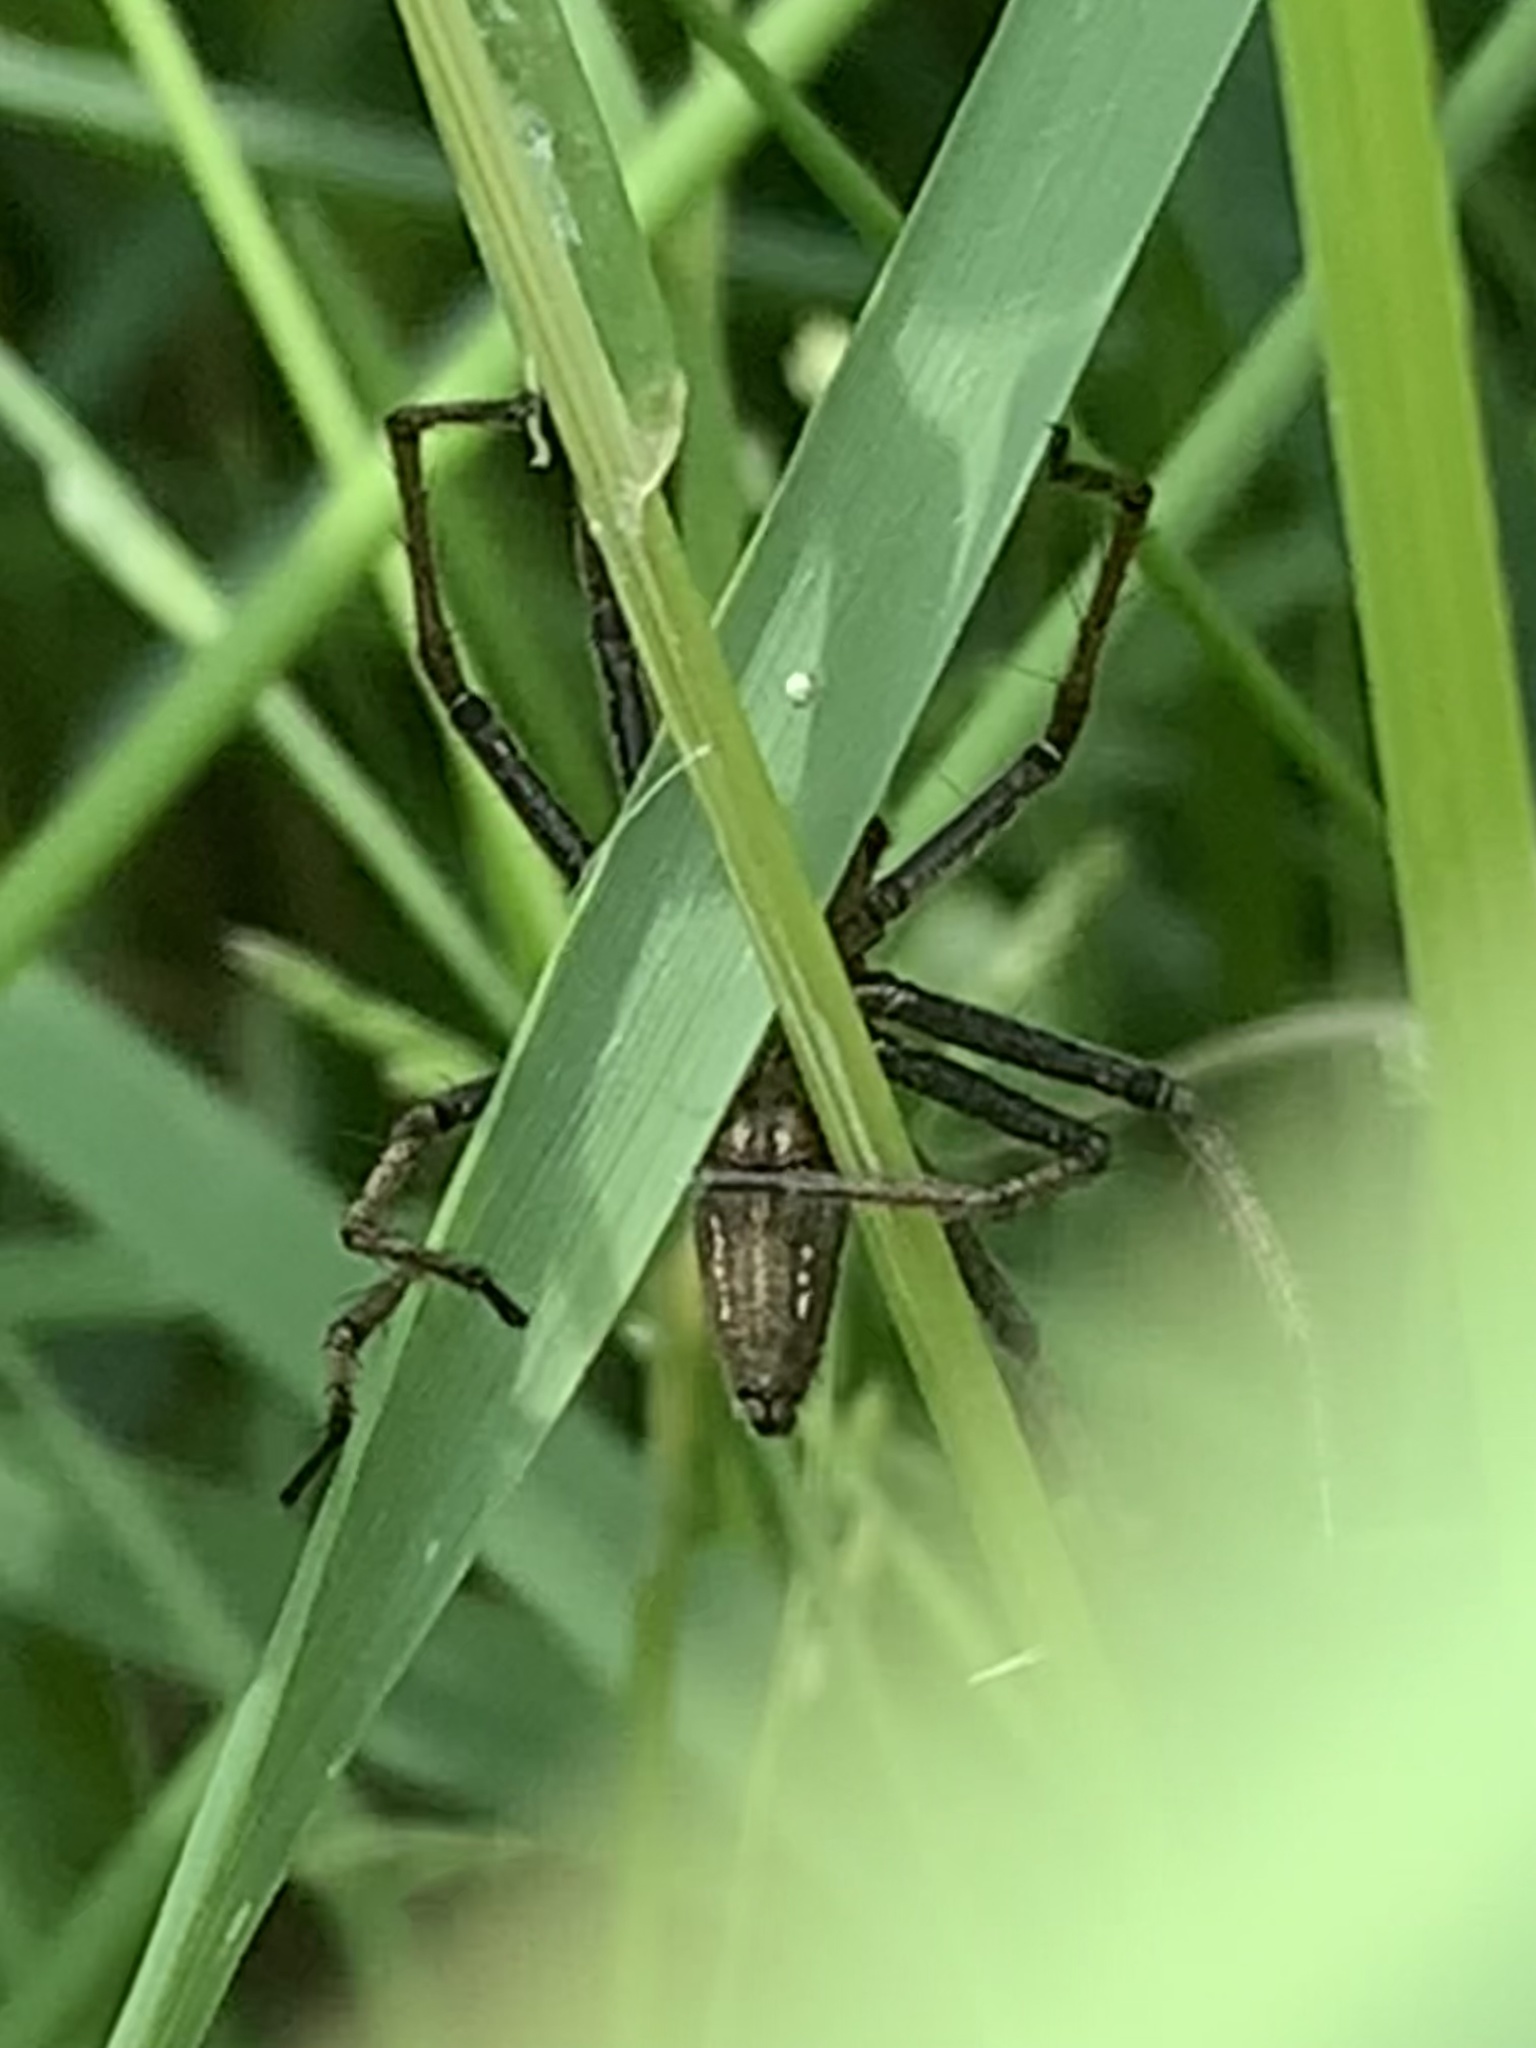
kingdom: Animalia
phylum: Arthropoda
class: Arachnida
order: Araneae
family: Pisauridae
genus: Pisaura
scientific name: Pisaura mirabilis
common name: Tent spider
